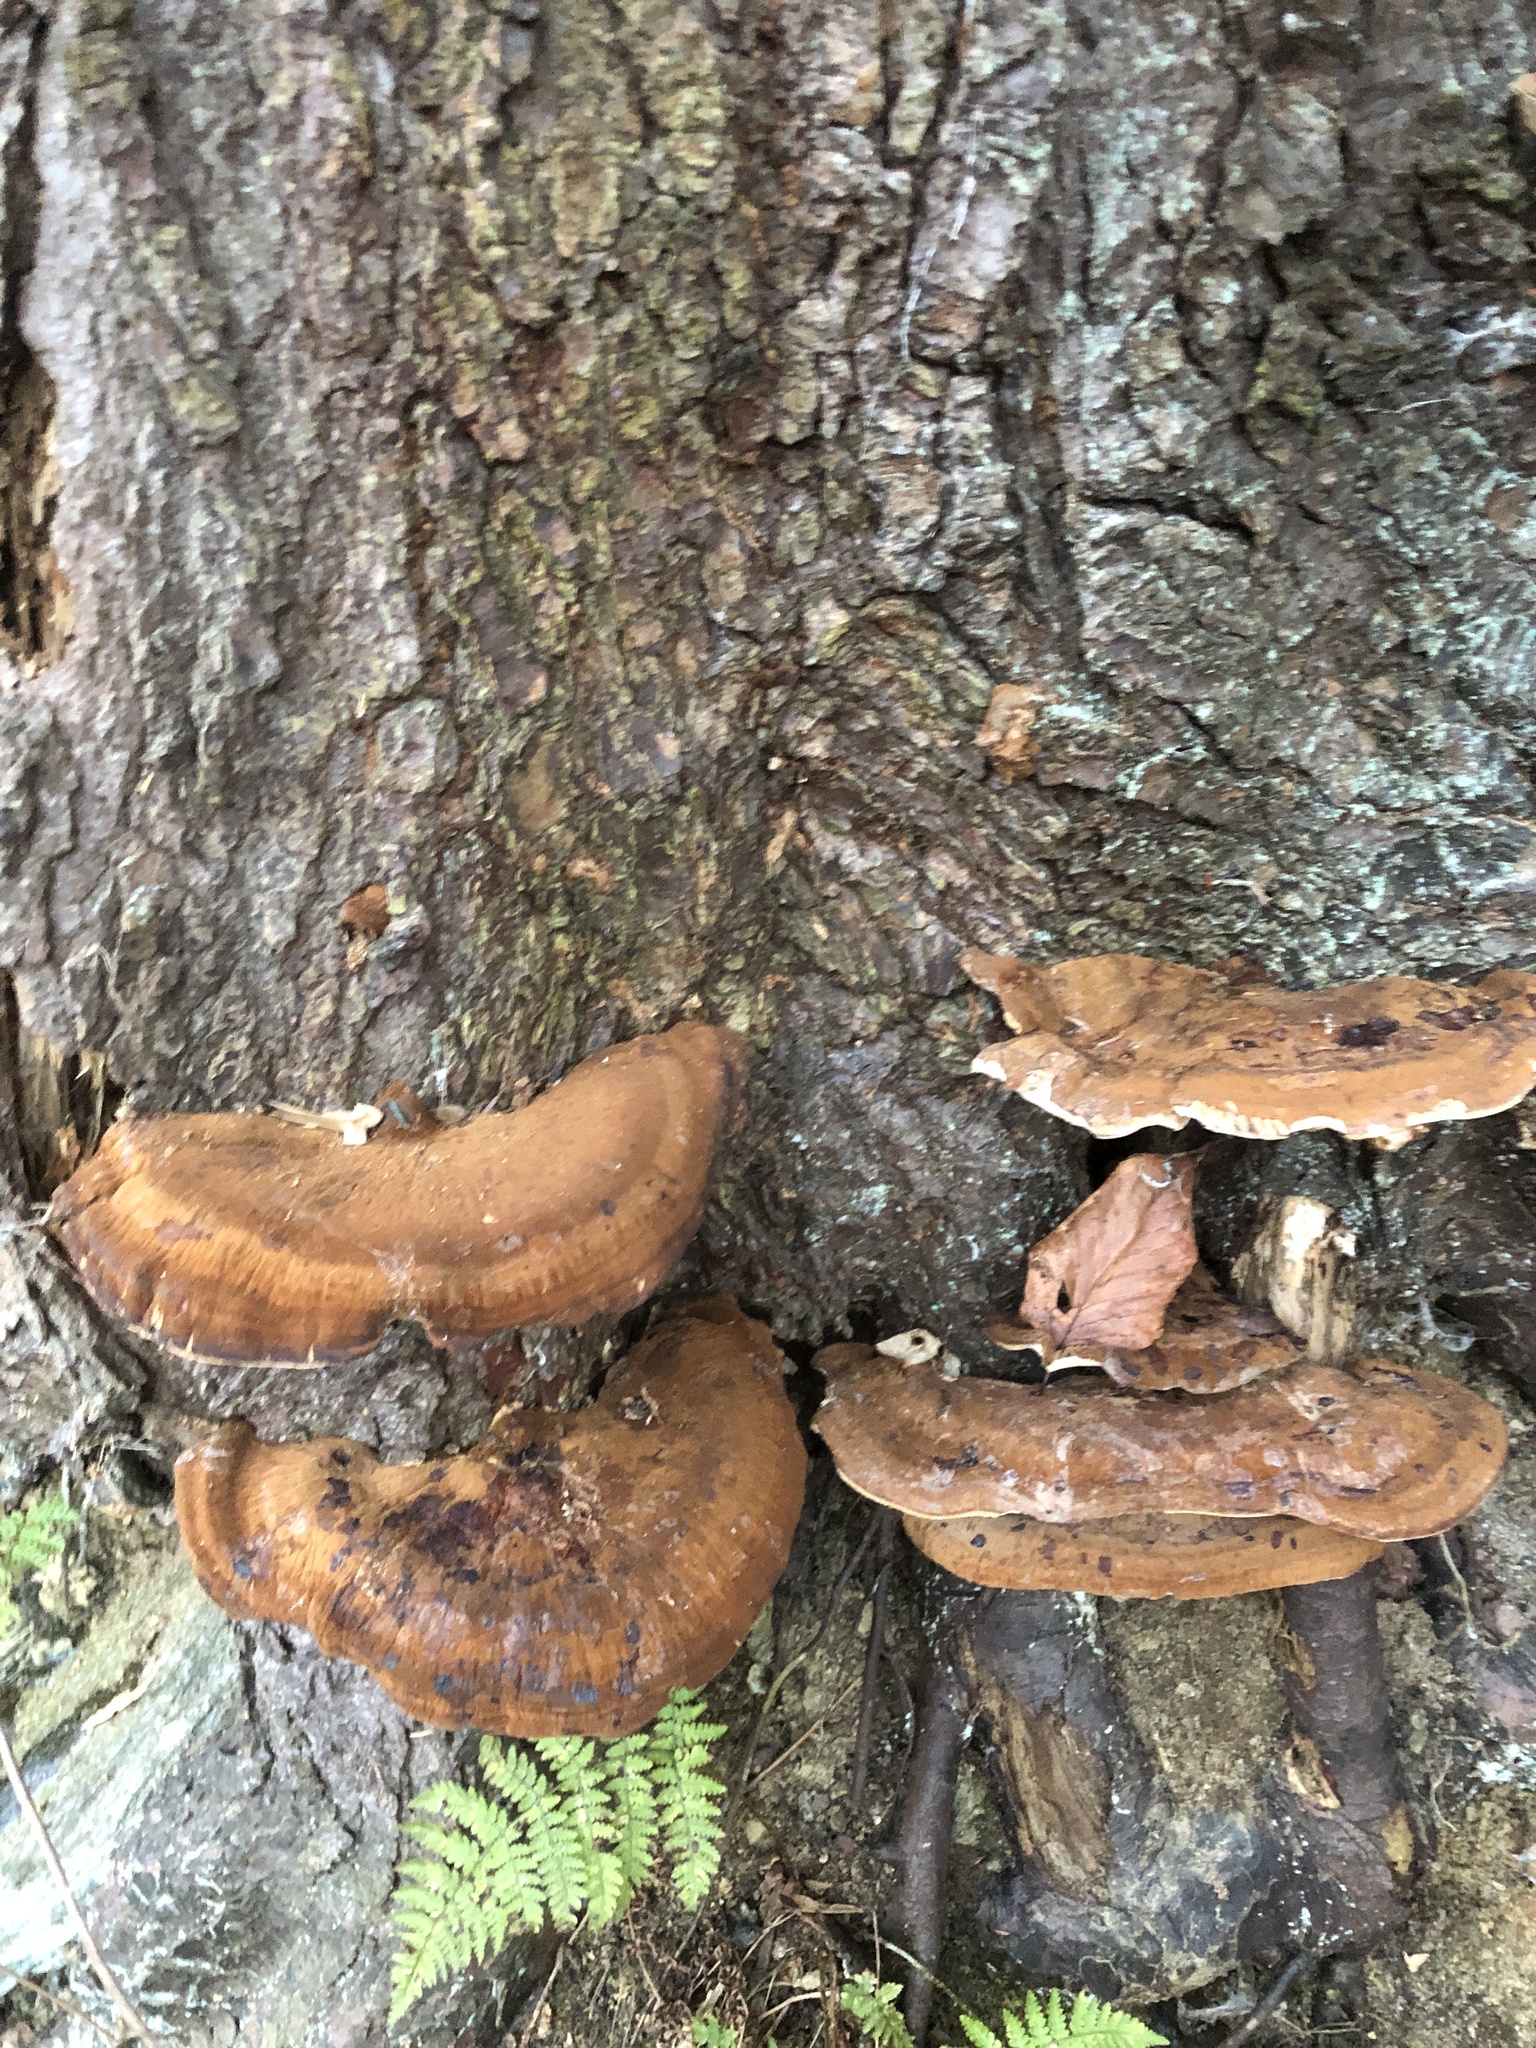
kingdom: Fungi
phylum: Basidiomycota
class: Agaricomycetes
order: Polyporales
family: Ischnodermataceae
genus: Ischnoderma
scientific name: Ischnoderma resinosum
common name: Resinous polypore
